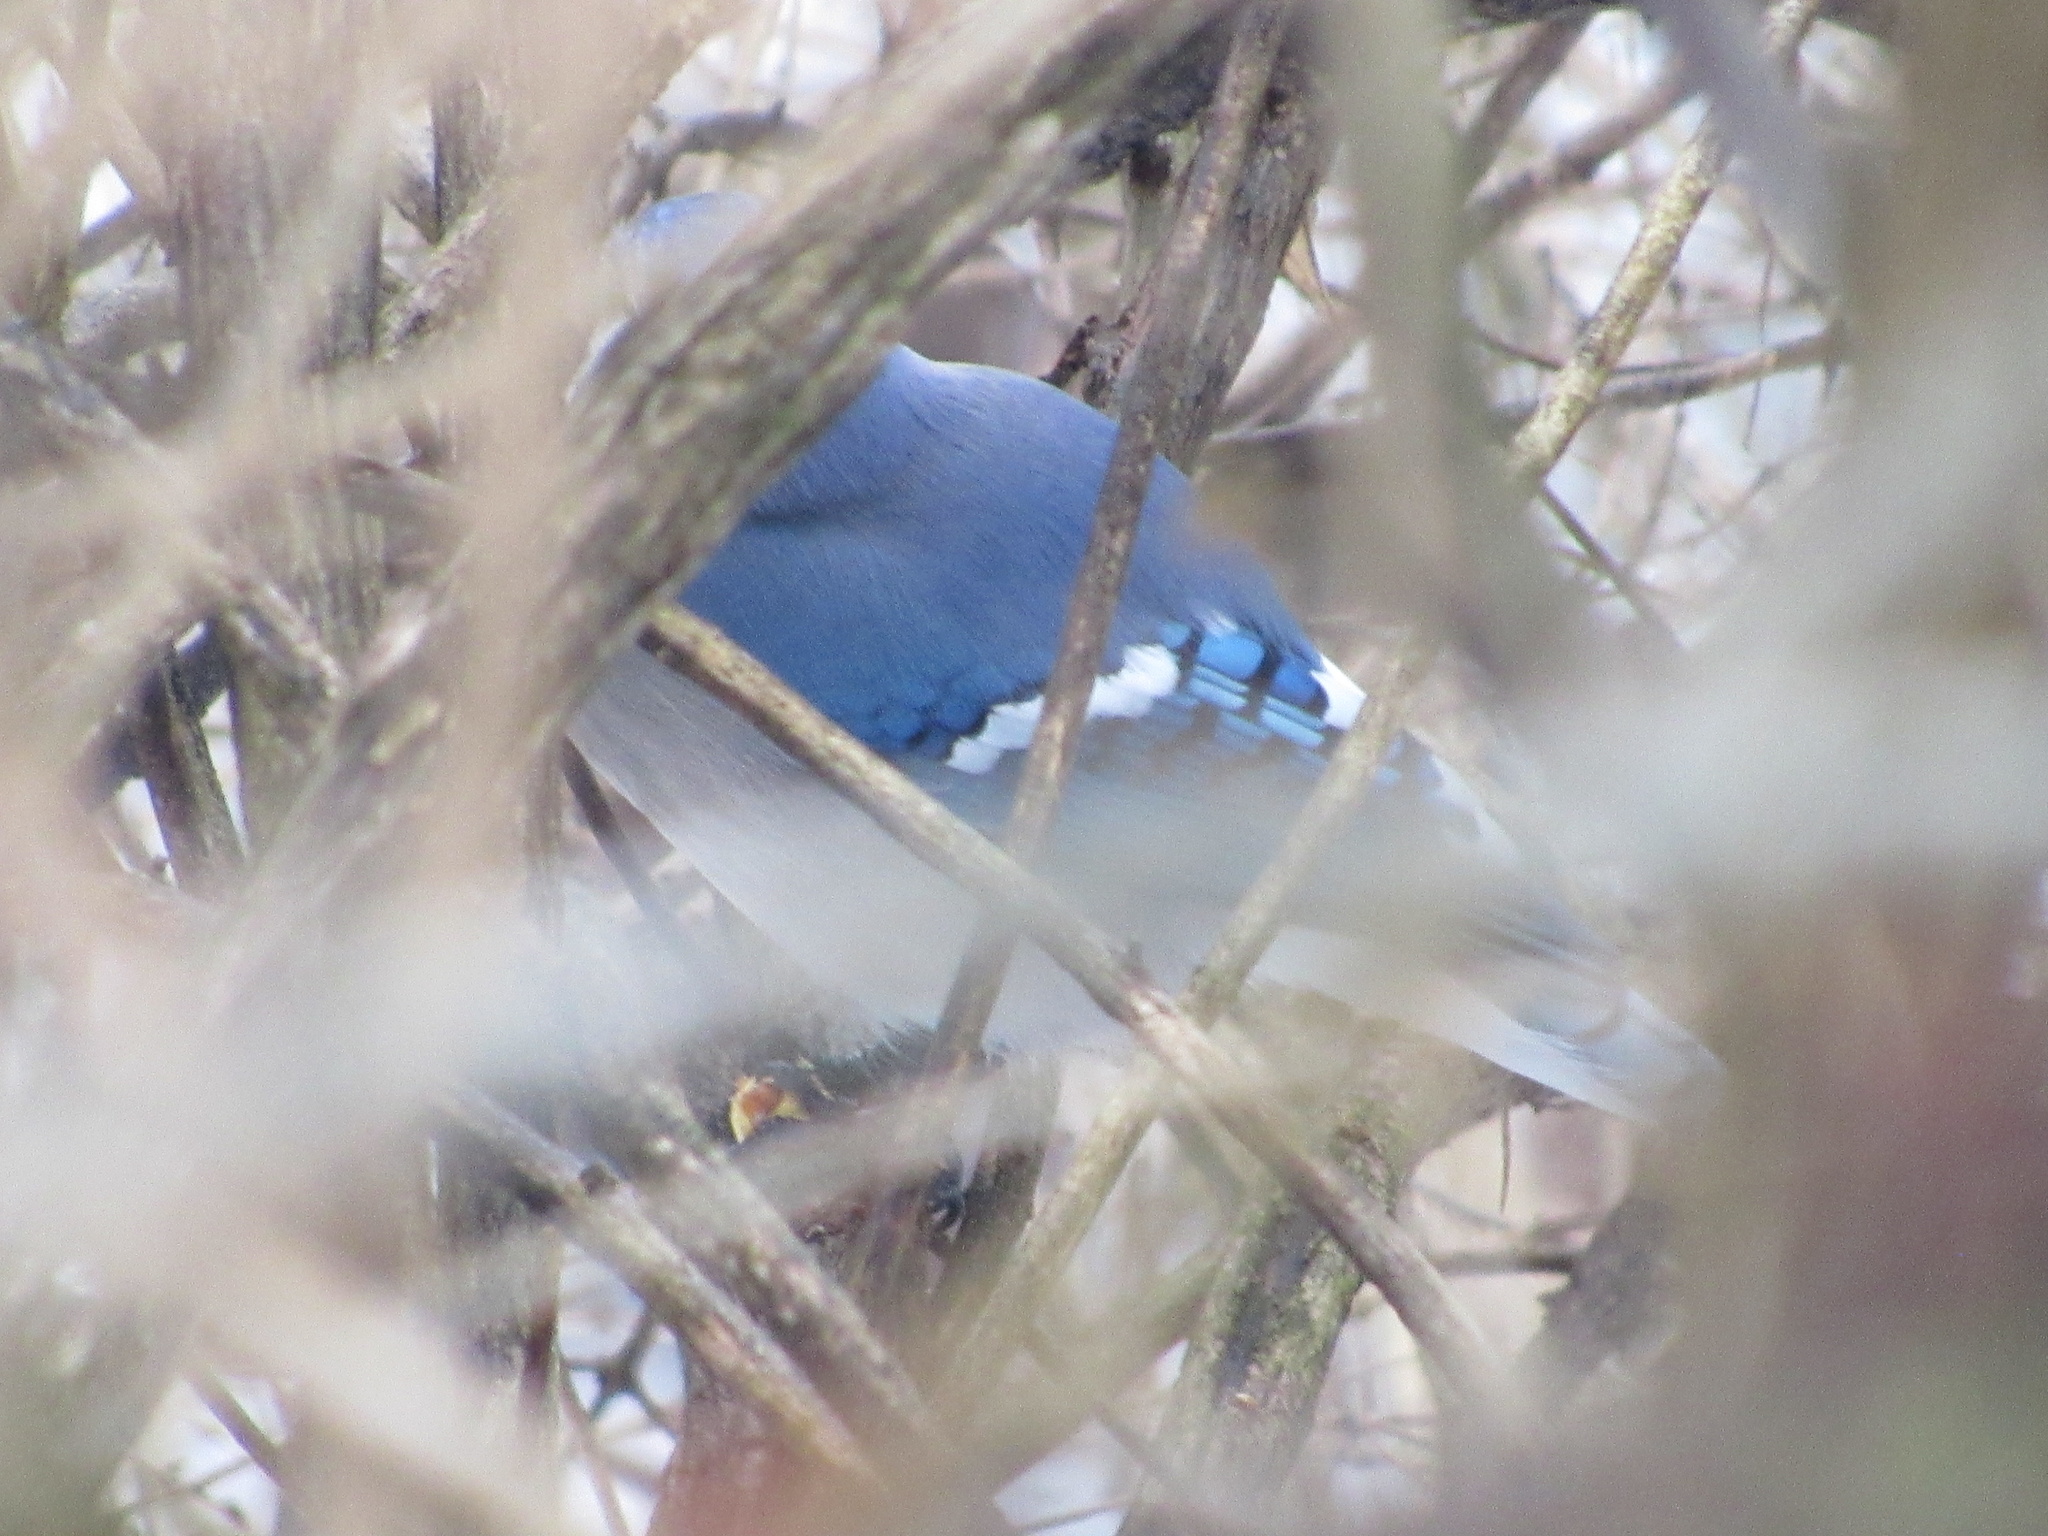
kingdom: Animalia
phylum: Chordata
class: Aves
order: Passeriformes
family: Corvidae
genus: Cyanocitta
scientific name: Cyanocitta cristata
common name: Blue jay
